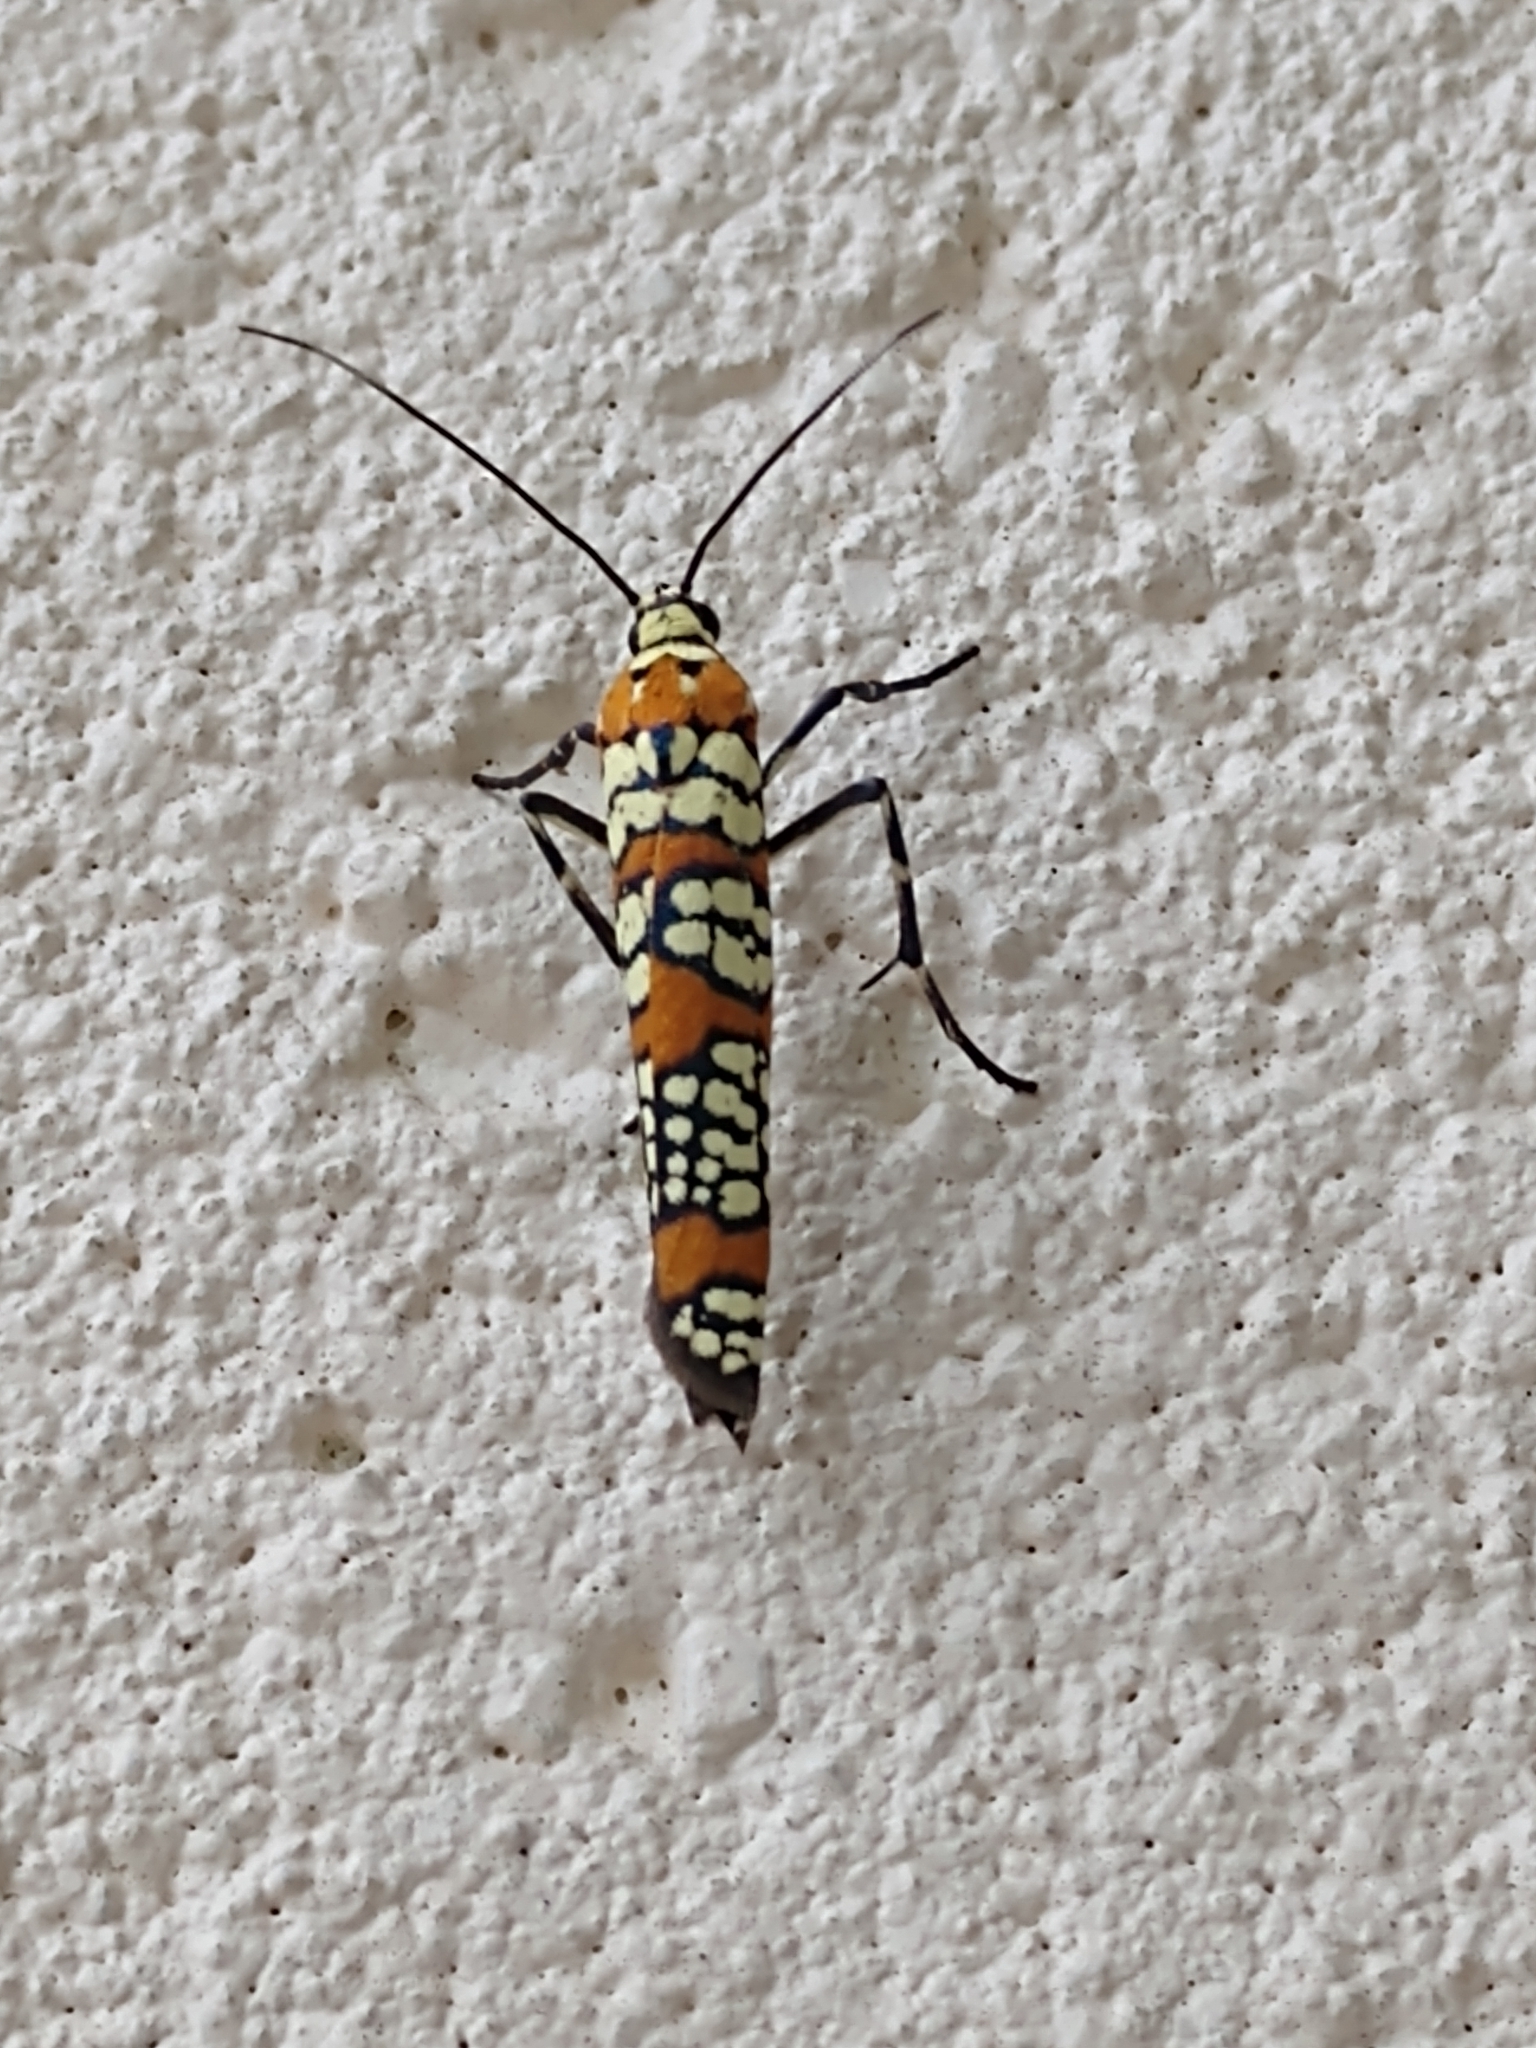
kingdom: Animalia
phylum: Arthropoda
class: Insecta
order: Lepidoptera
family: Attevidae
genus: Atteva
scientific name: Atteva punctella
